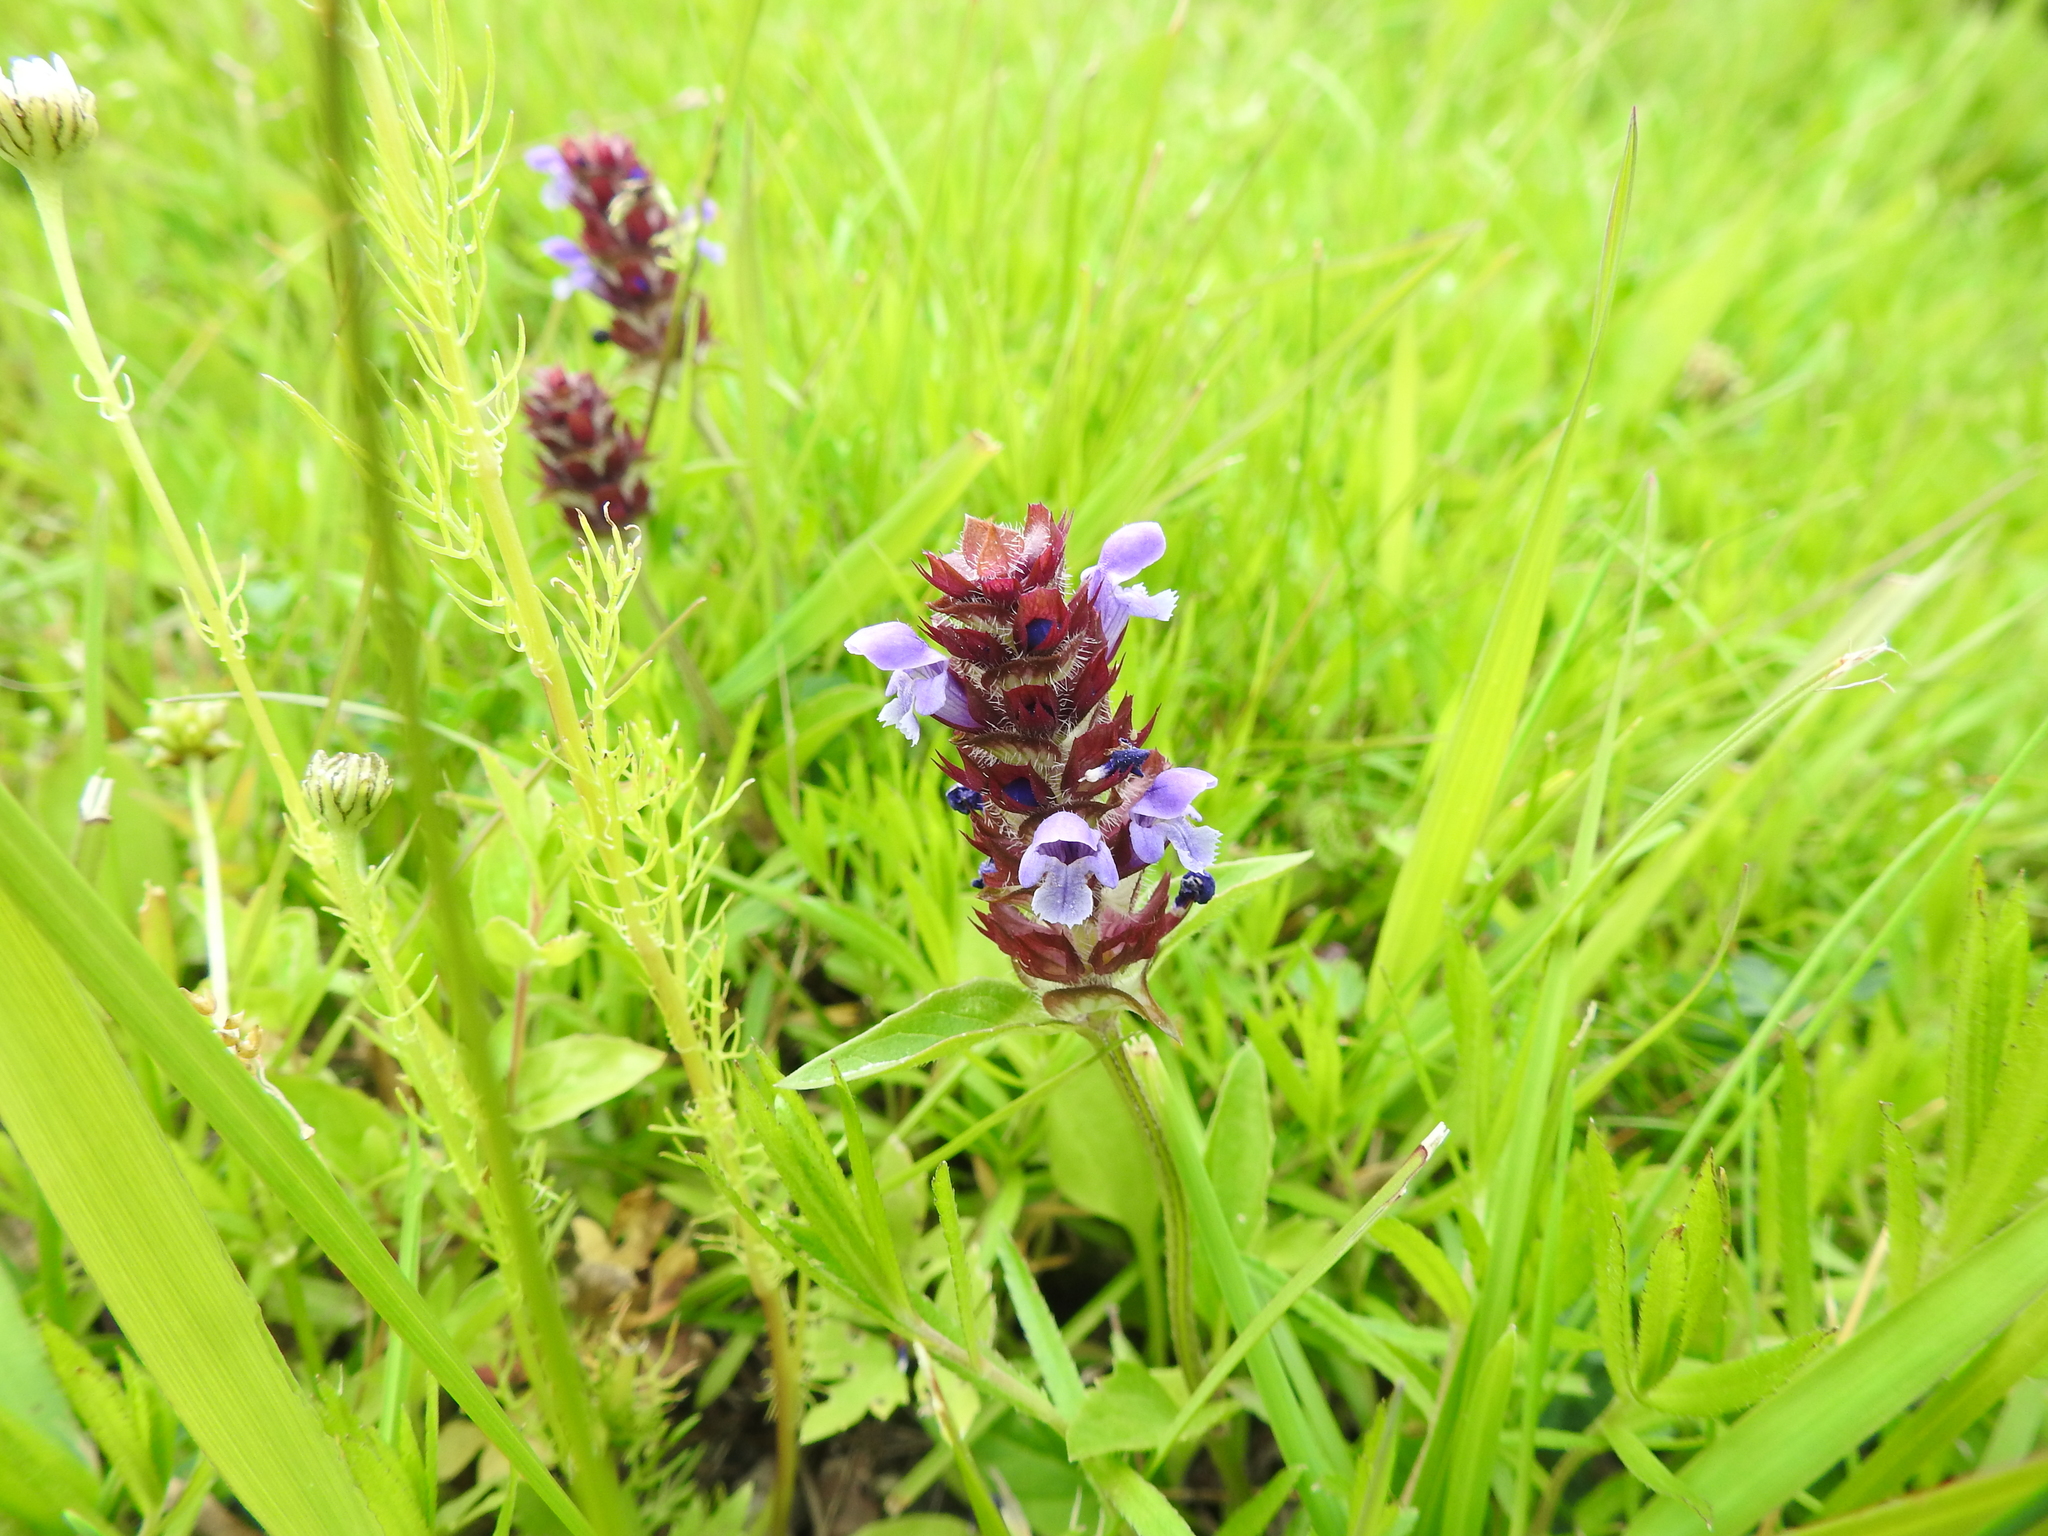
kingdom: Plantae
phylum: Tracheophyta
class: Magnoliopsida
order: Lamiales
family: Lamiaceae
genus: Prunella
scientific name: Prunella vulgaris
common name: Heal-all
